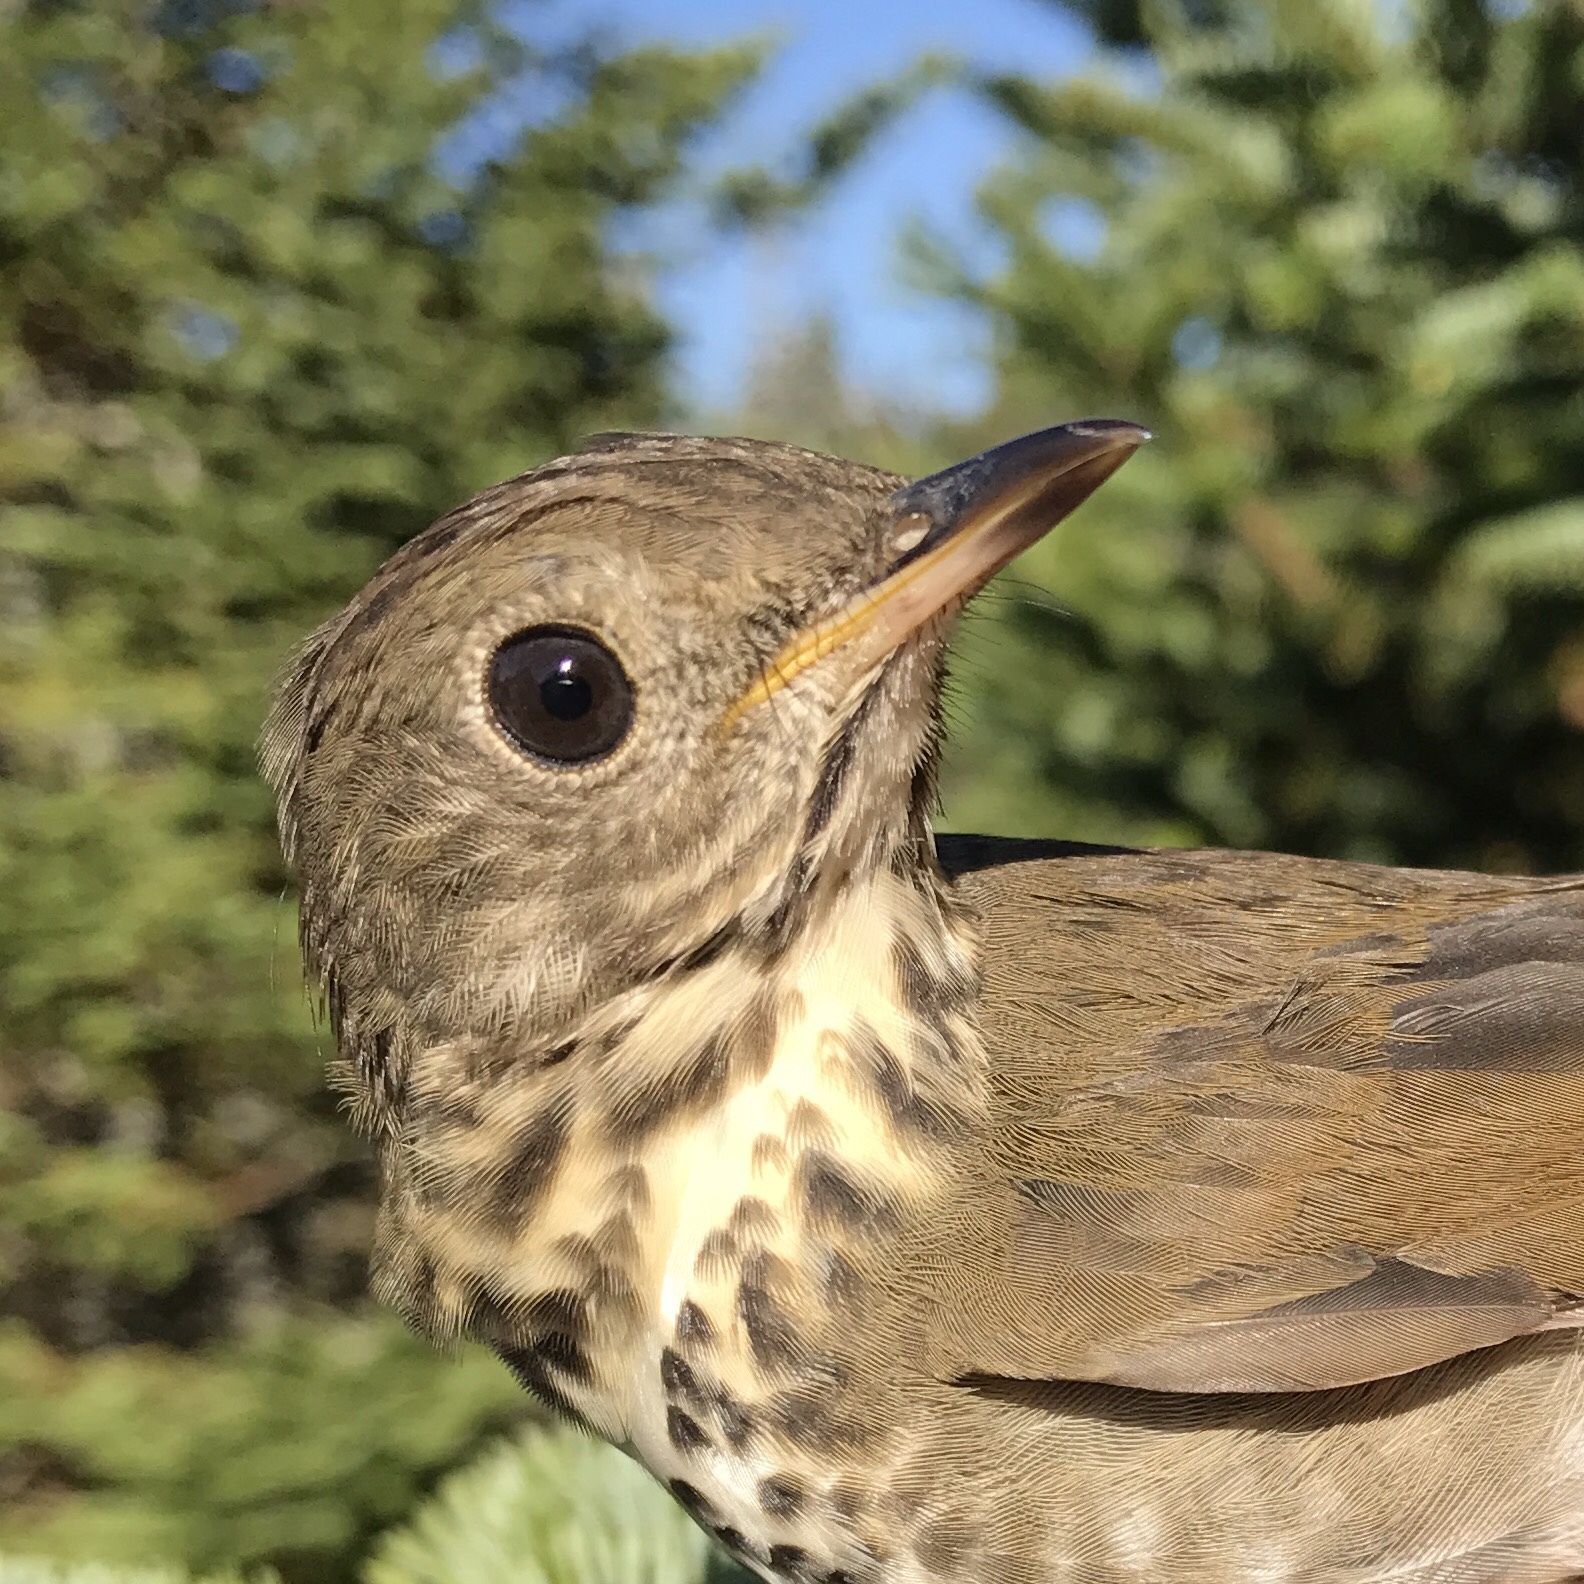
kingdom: Animalia
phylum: Chordata
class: Aves
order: Passeriformes
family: Turdidae
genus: Catharus
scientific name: Catharus bicknelli
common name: Bicknell's thrush
